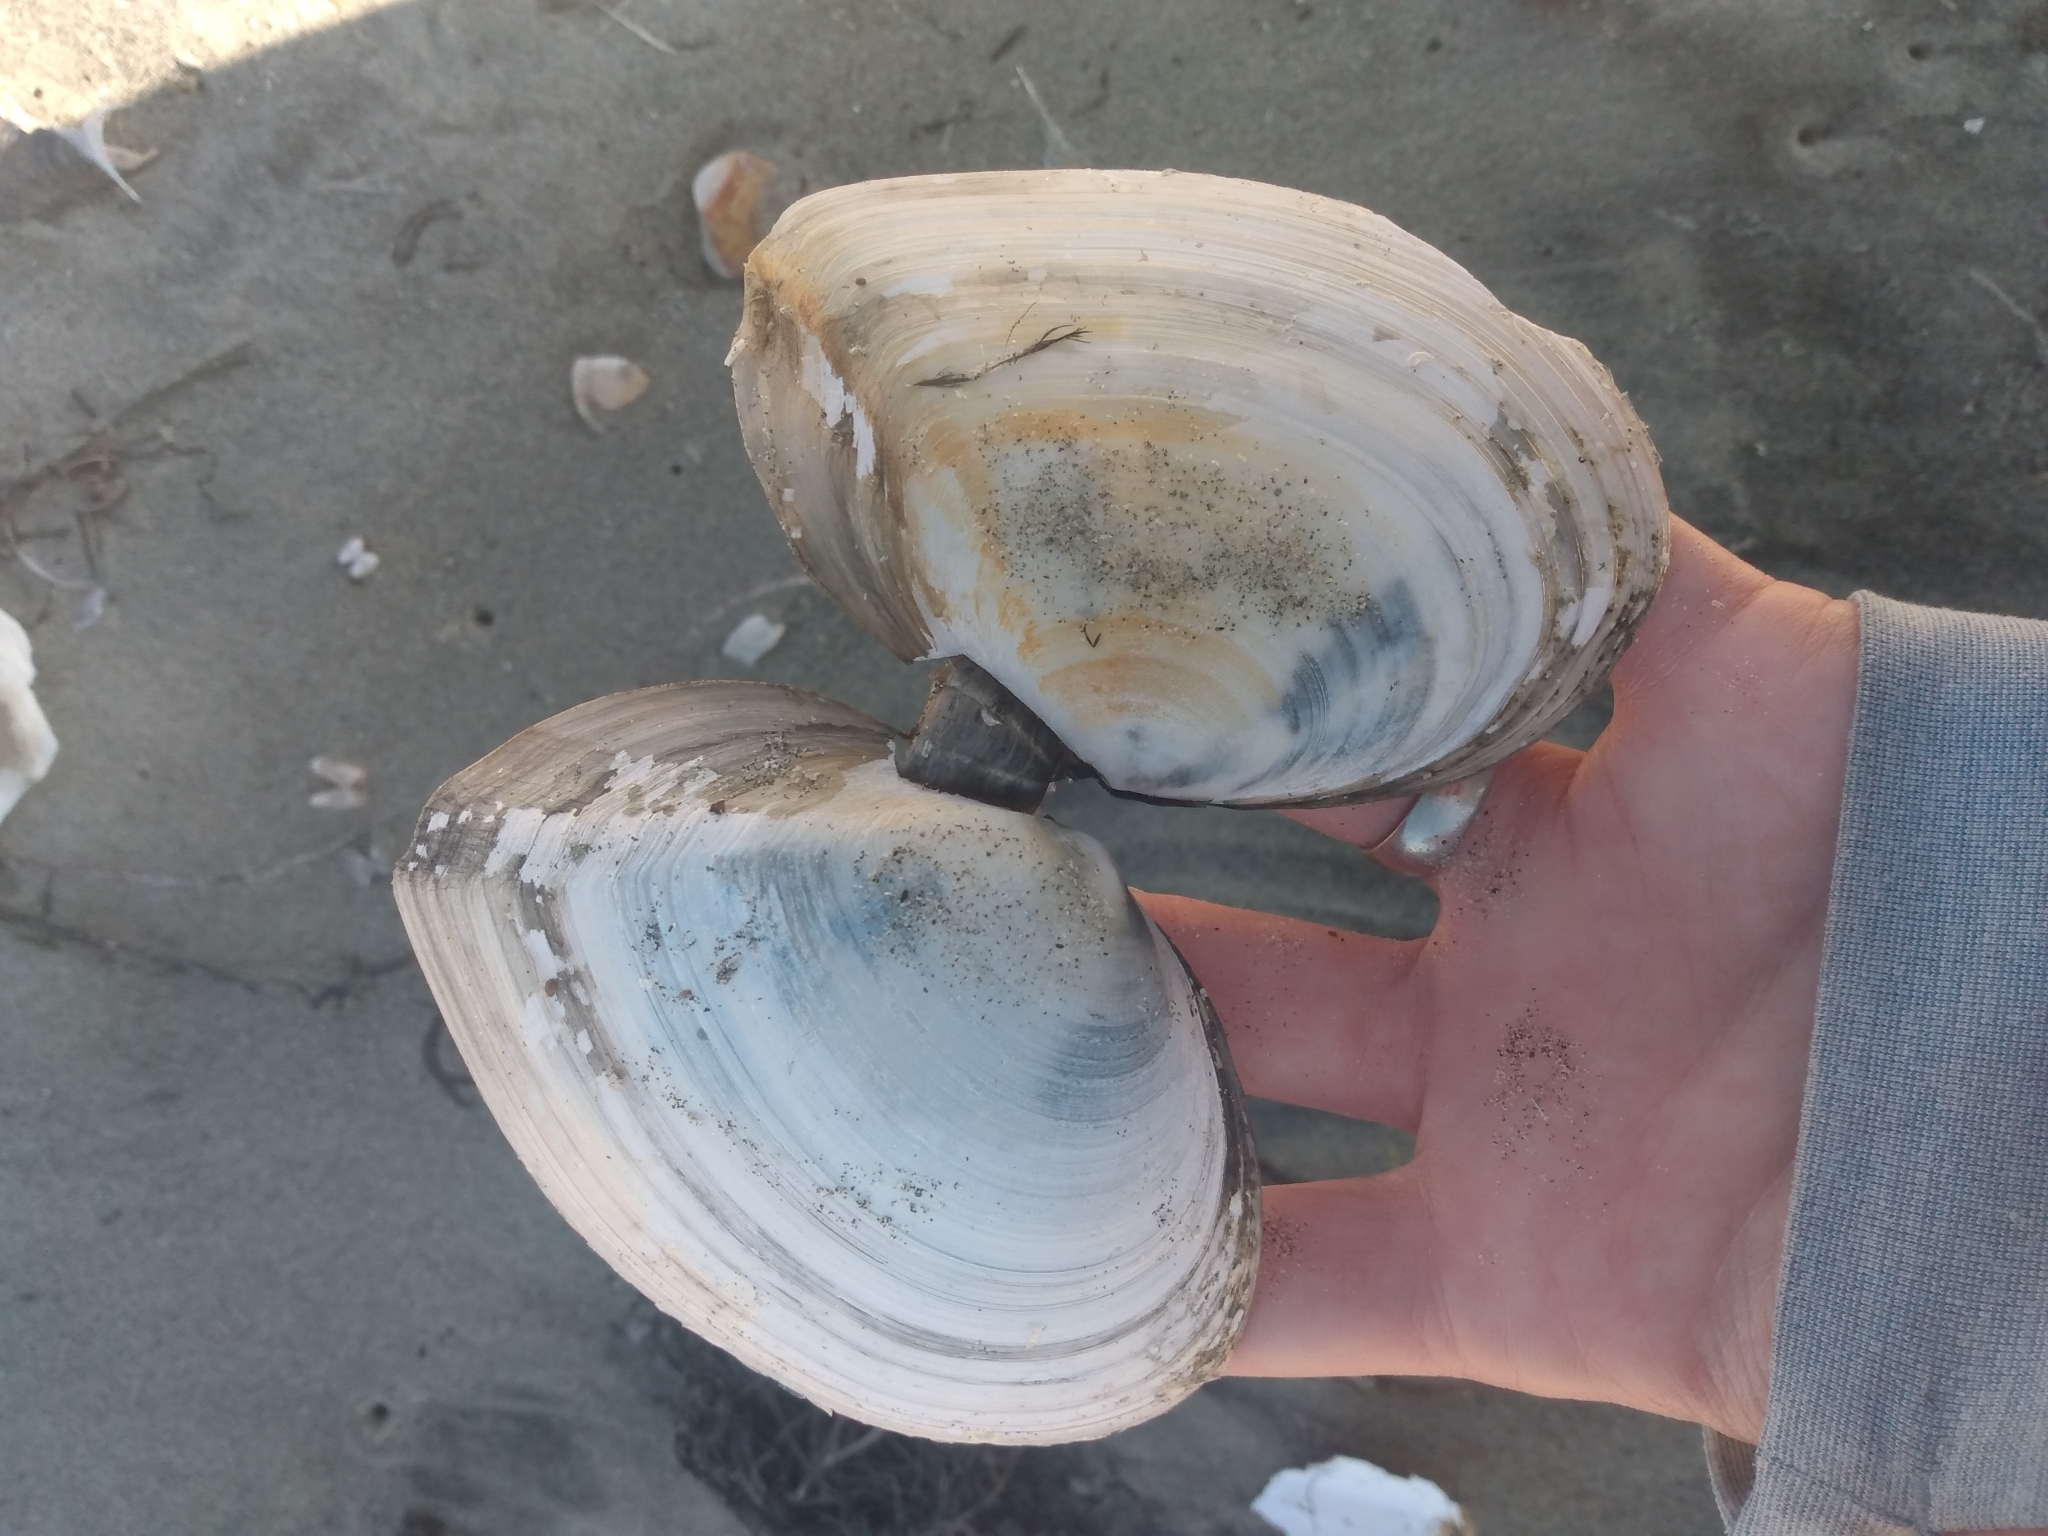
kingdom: Animalia
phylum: Mollusca
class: Bivalvia
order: Cardiida
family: Tellinidae
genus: Rexithaerus
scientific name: Rexithaerus secta
